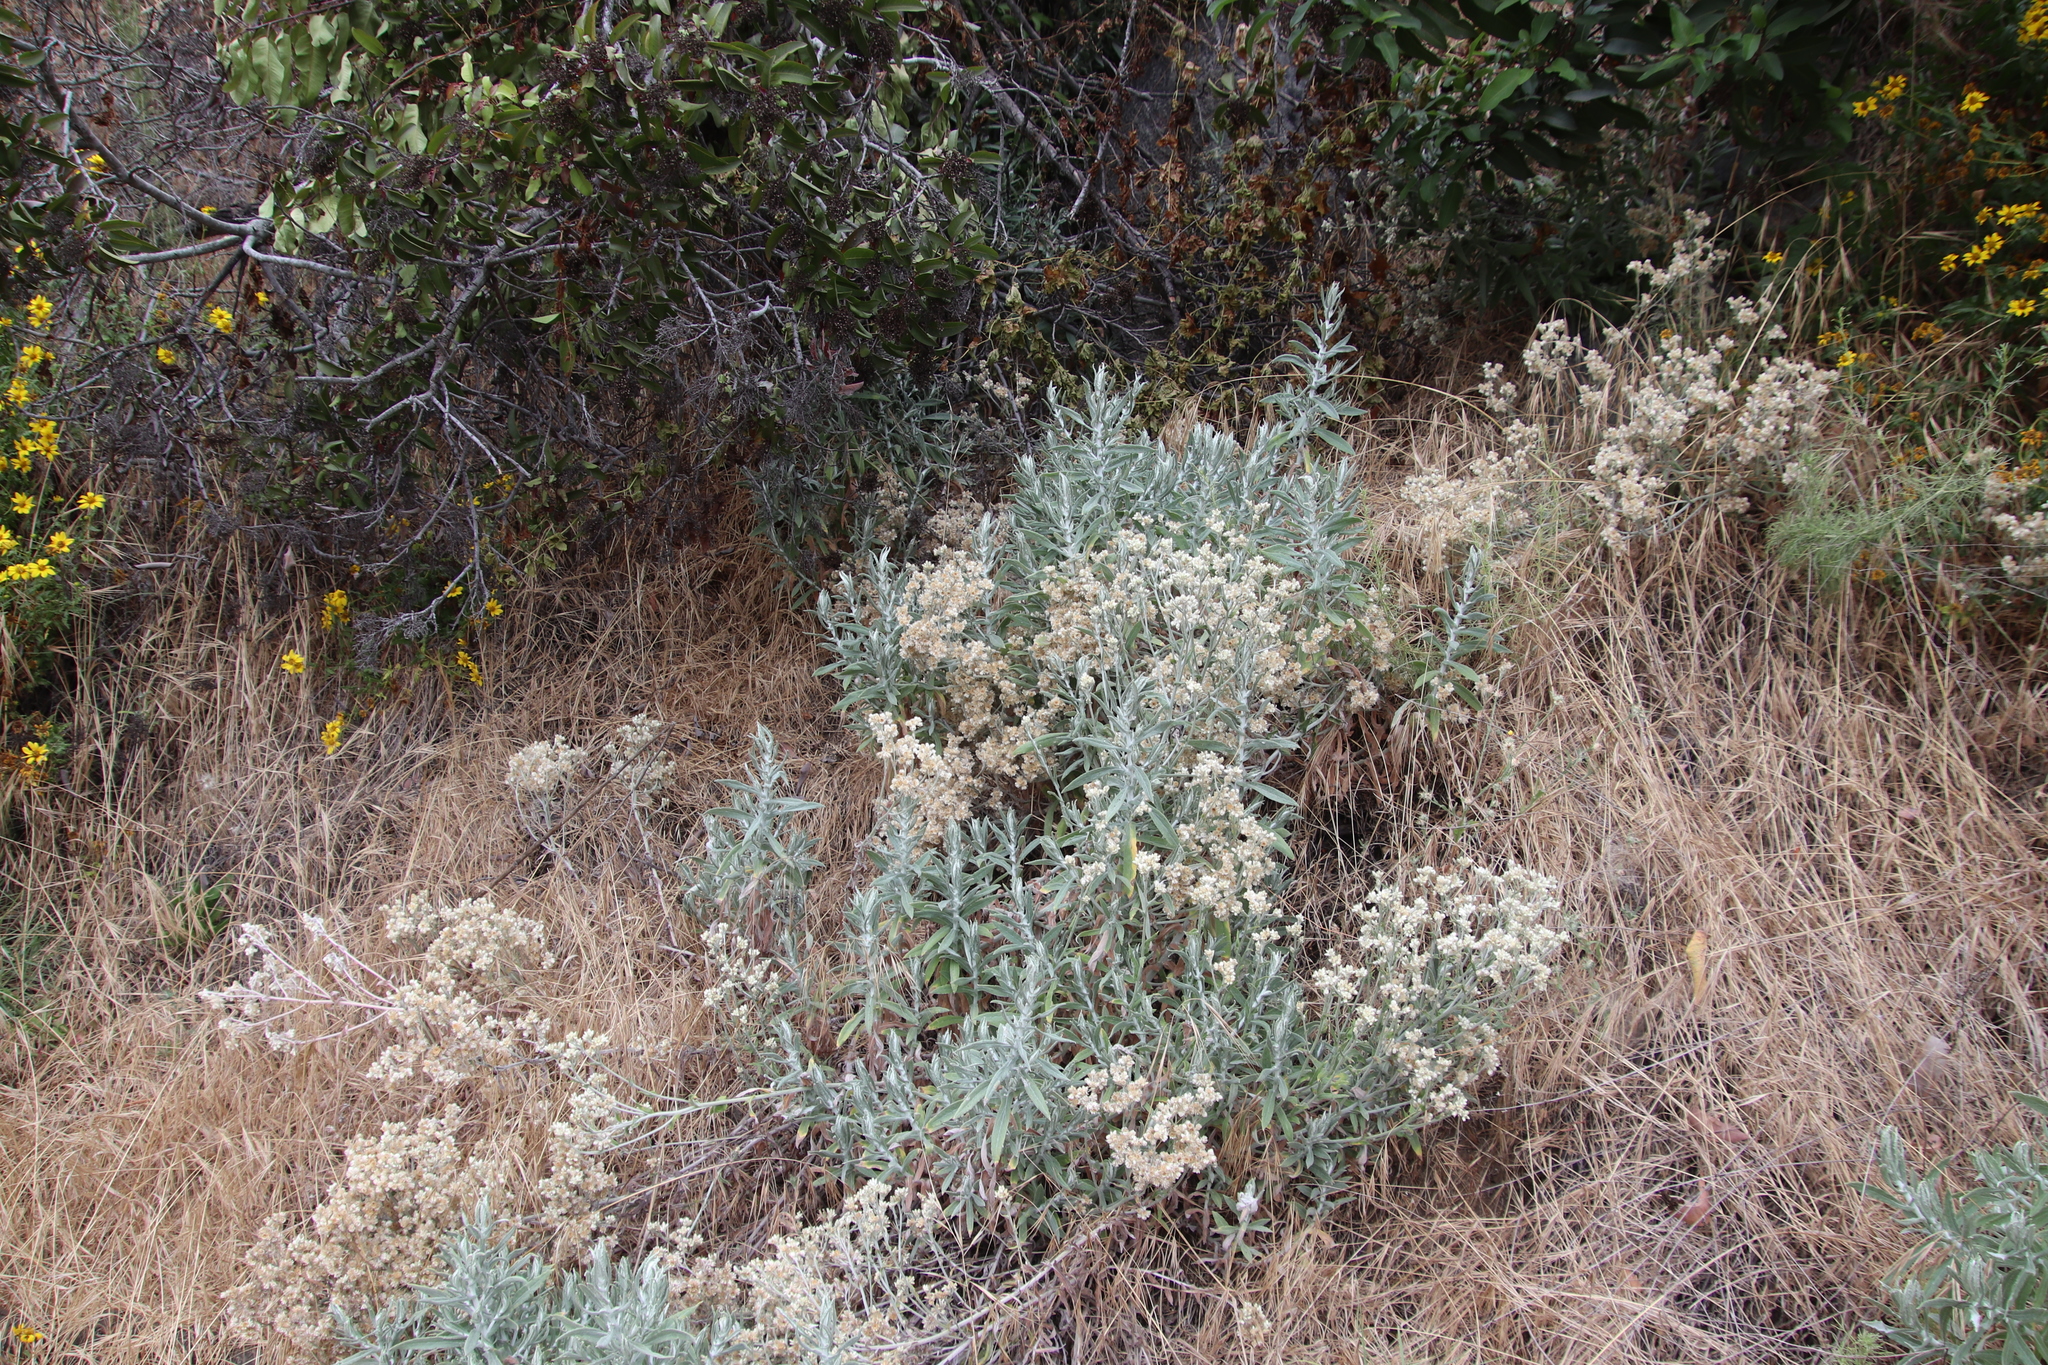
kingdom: Plantae
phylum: Tracheophyta
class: Magnoliopsida
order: Asterales
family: Asteraceae
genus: Pseudognaphalium
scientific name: Pseudognaphalium biolettii
